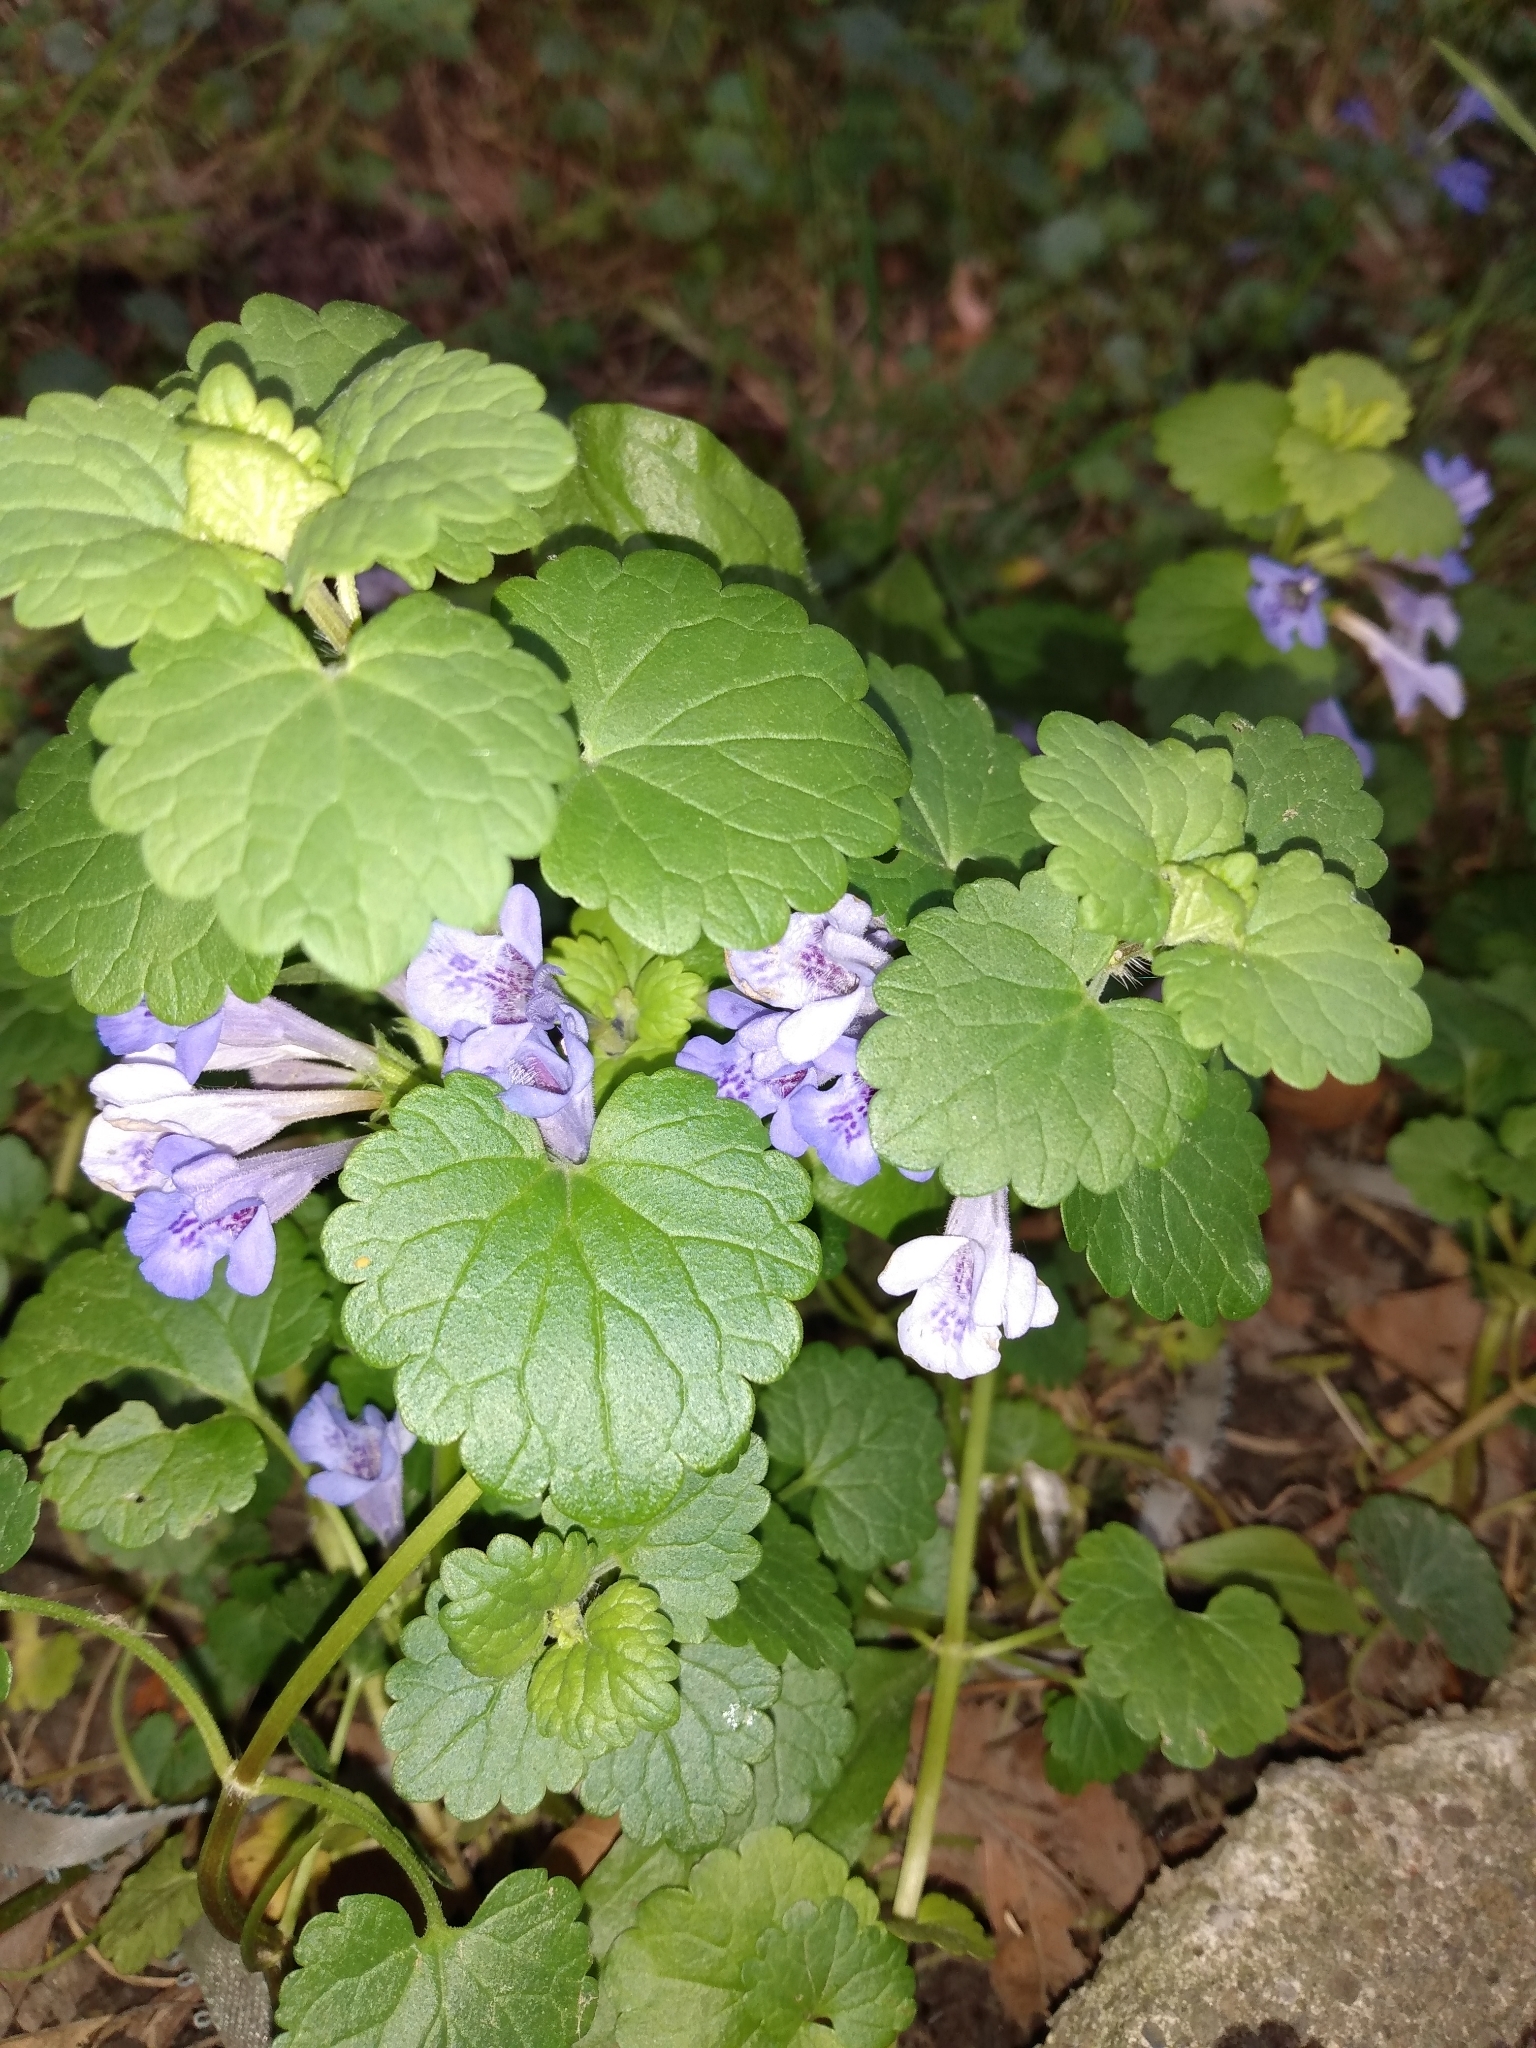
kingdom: Plantae
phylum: Tracheophyta
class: Magnoliopsida
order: Lamiales
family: Lamiaceae
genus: Glechoma
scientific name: Glechoma hederacea
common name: Ground ivy
